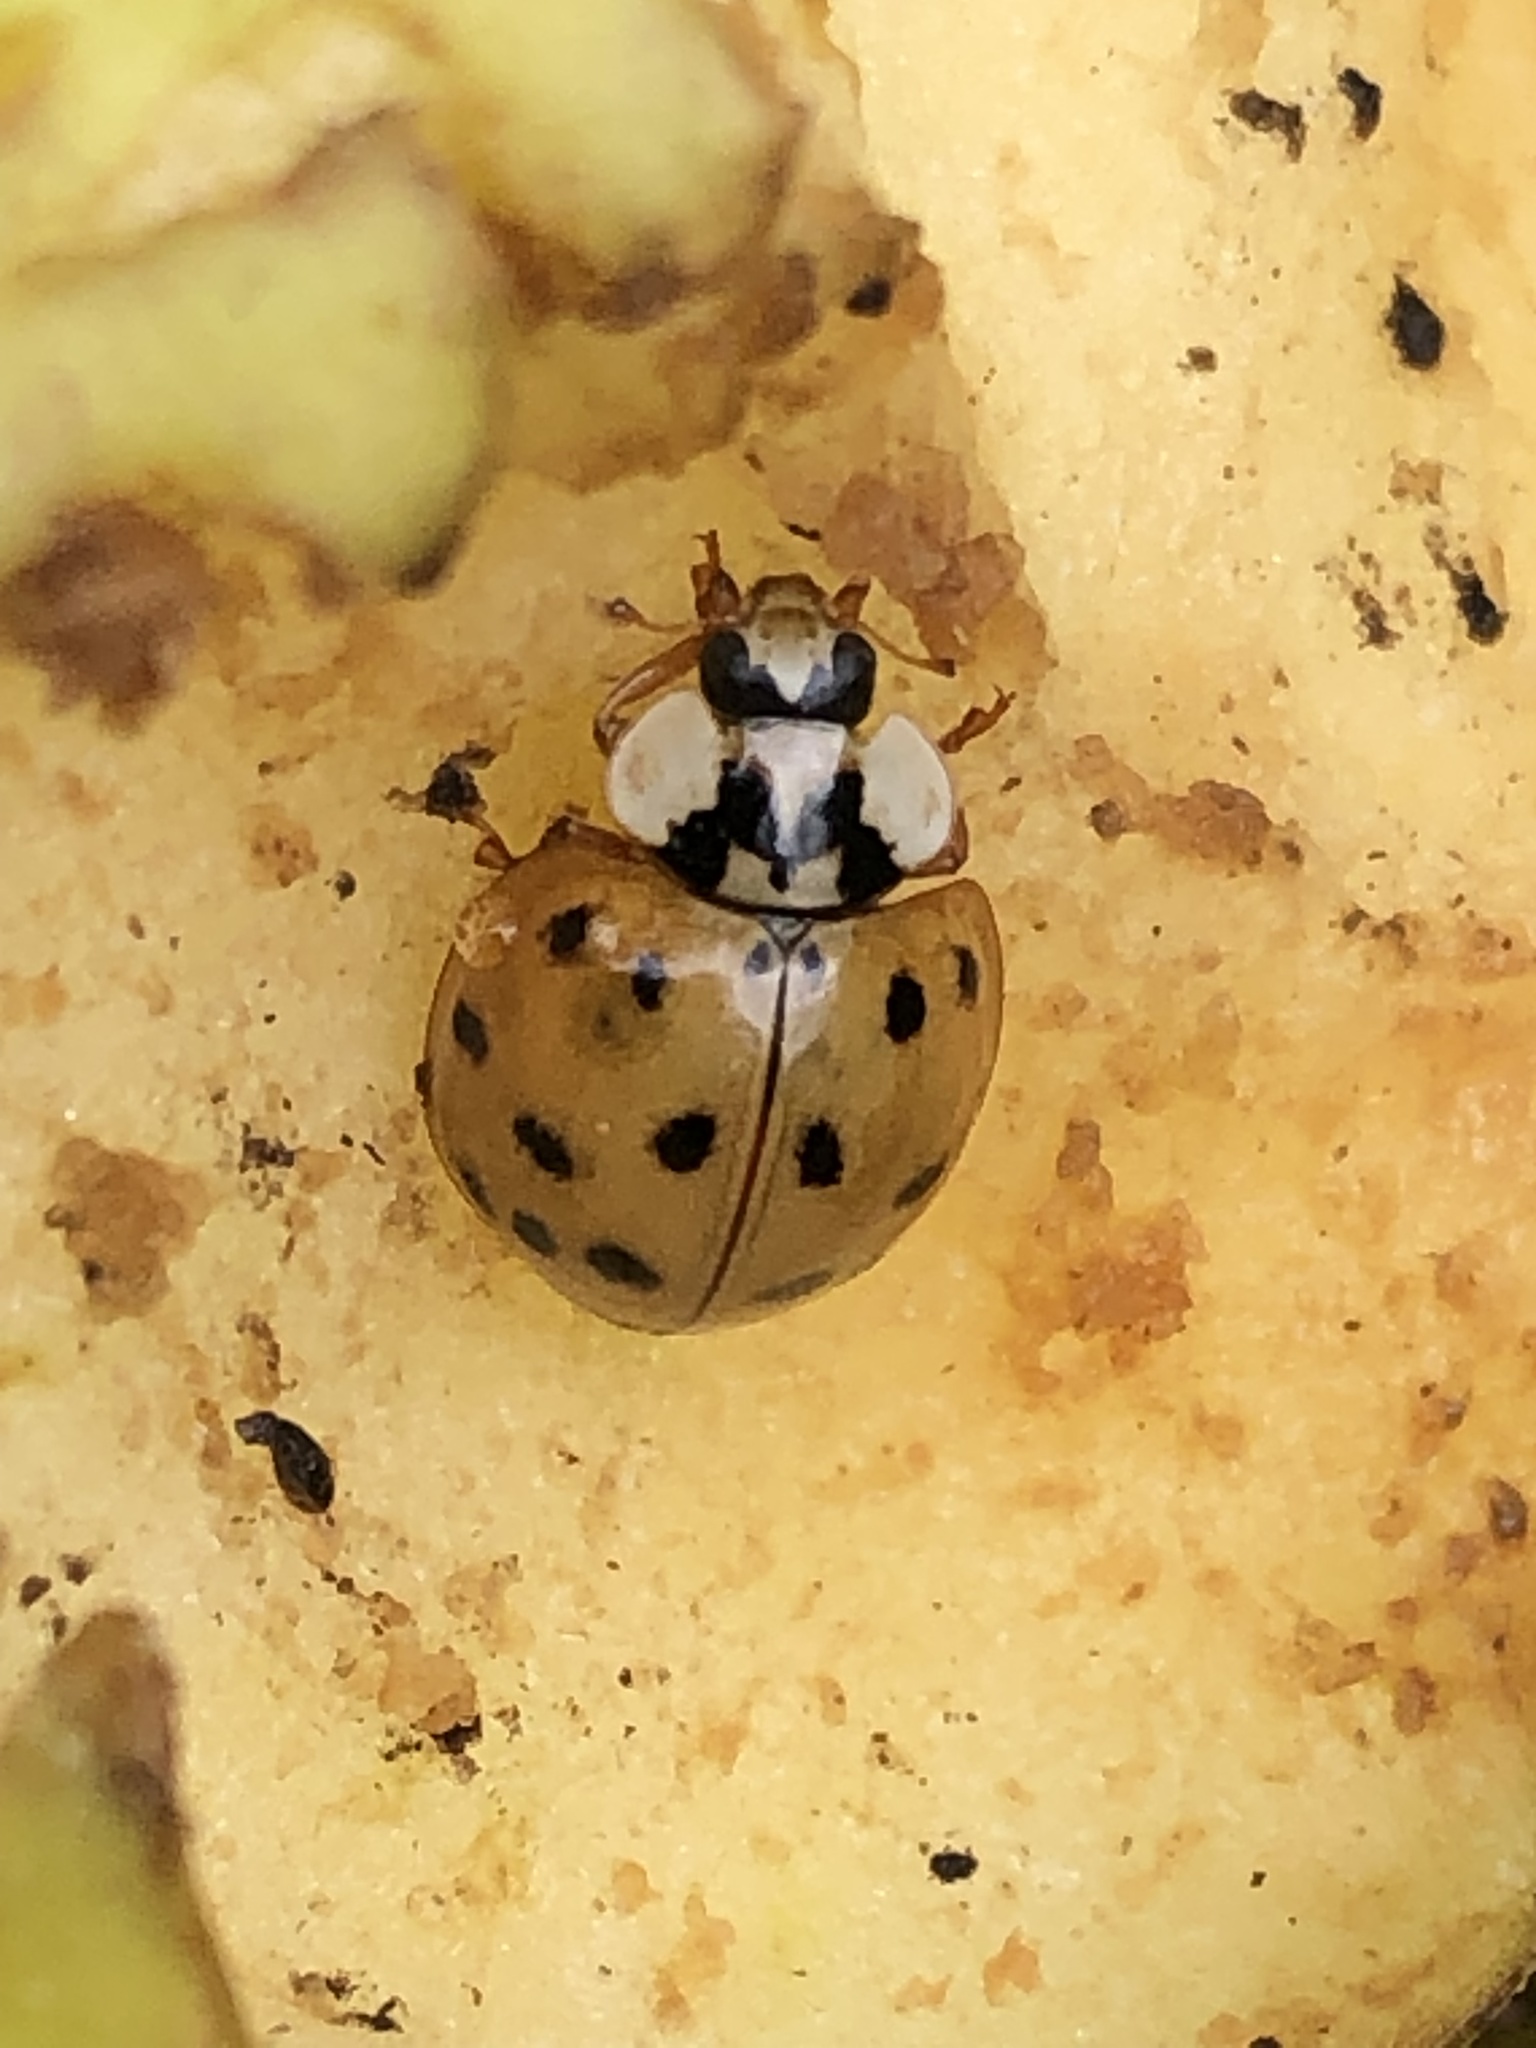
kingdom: Animalia
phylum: Arthropoda
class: Insecta
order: Coleoptera
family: Coccinellidae
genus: Harmonia
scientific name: Harmonia axyridis
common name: Harlequin ladybird
